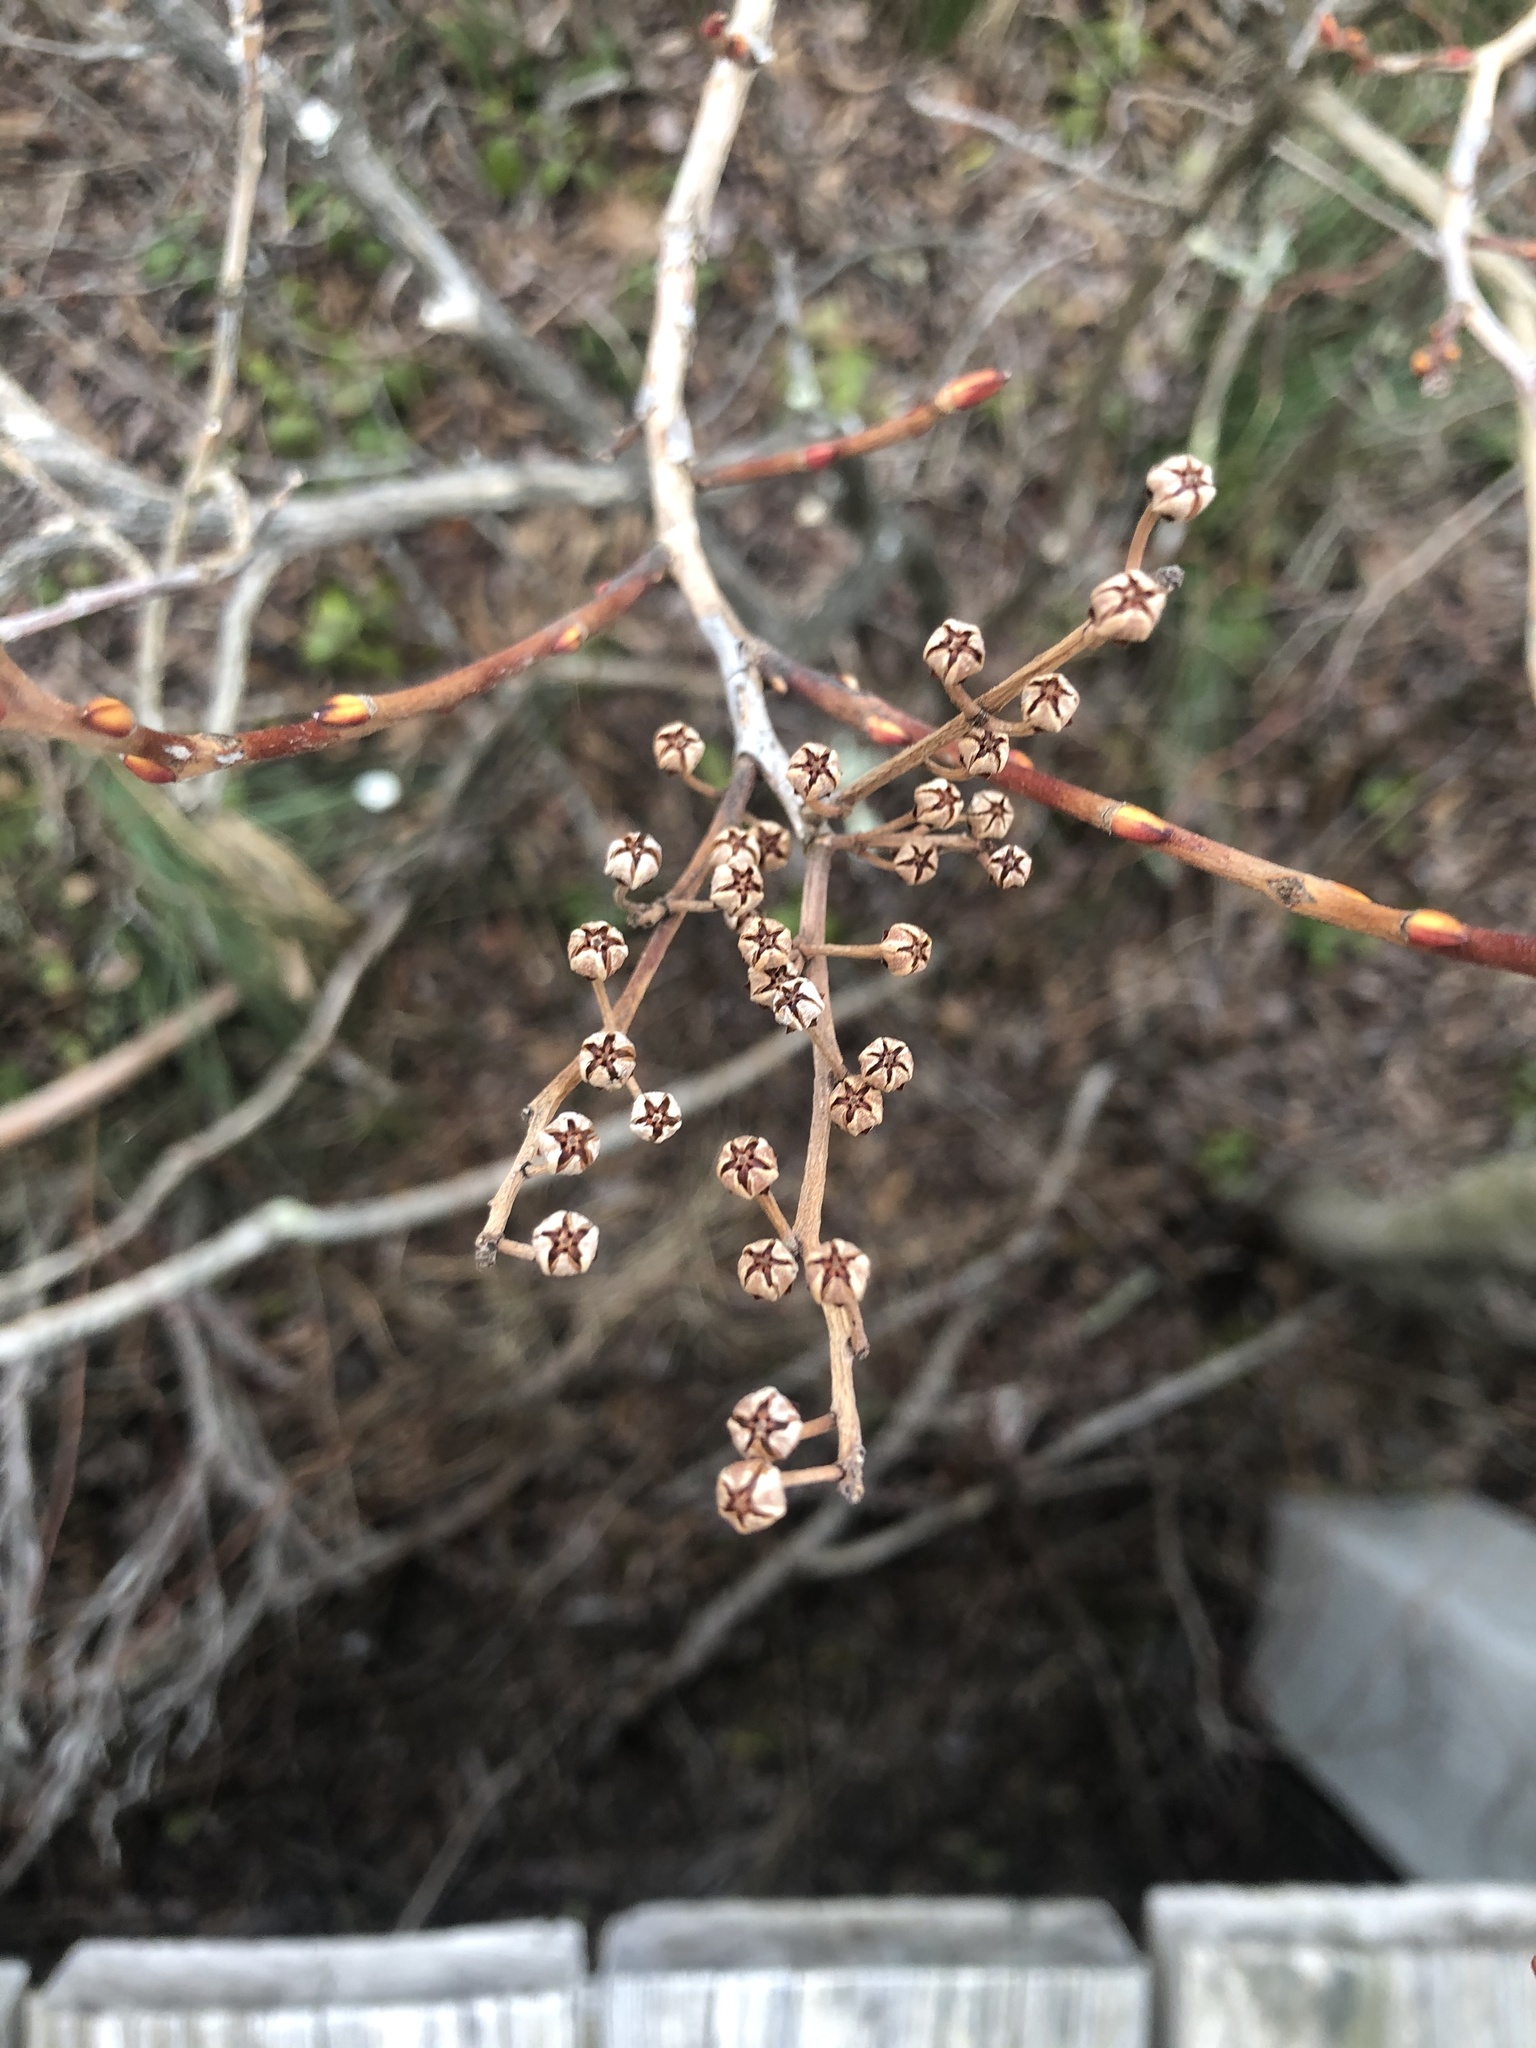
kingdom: Plantae
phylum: Tracheophyta
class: Magnoliopsida
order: Ericales
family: Ericaceae
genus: Lyonia
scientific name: Lyonia ligustrina
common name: Maleberry
